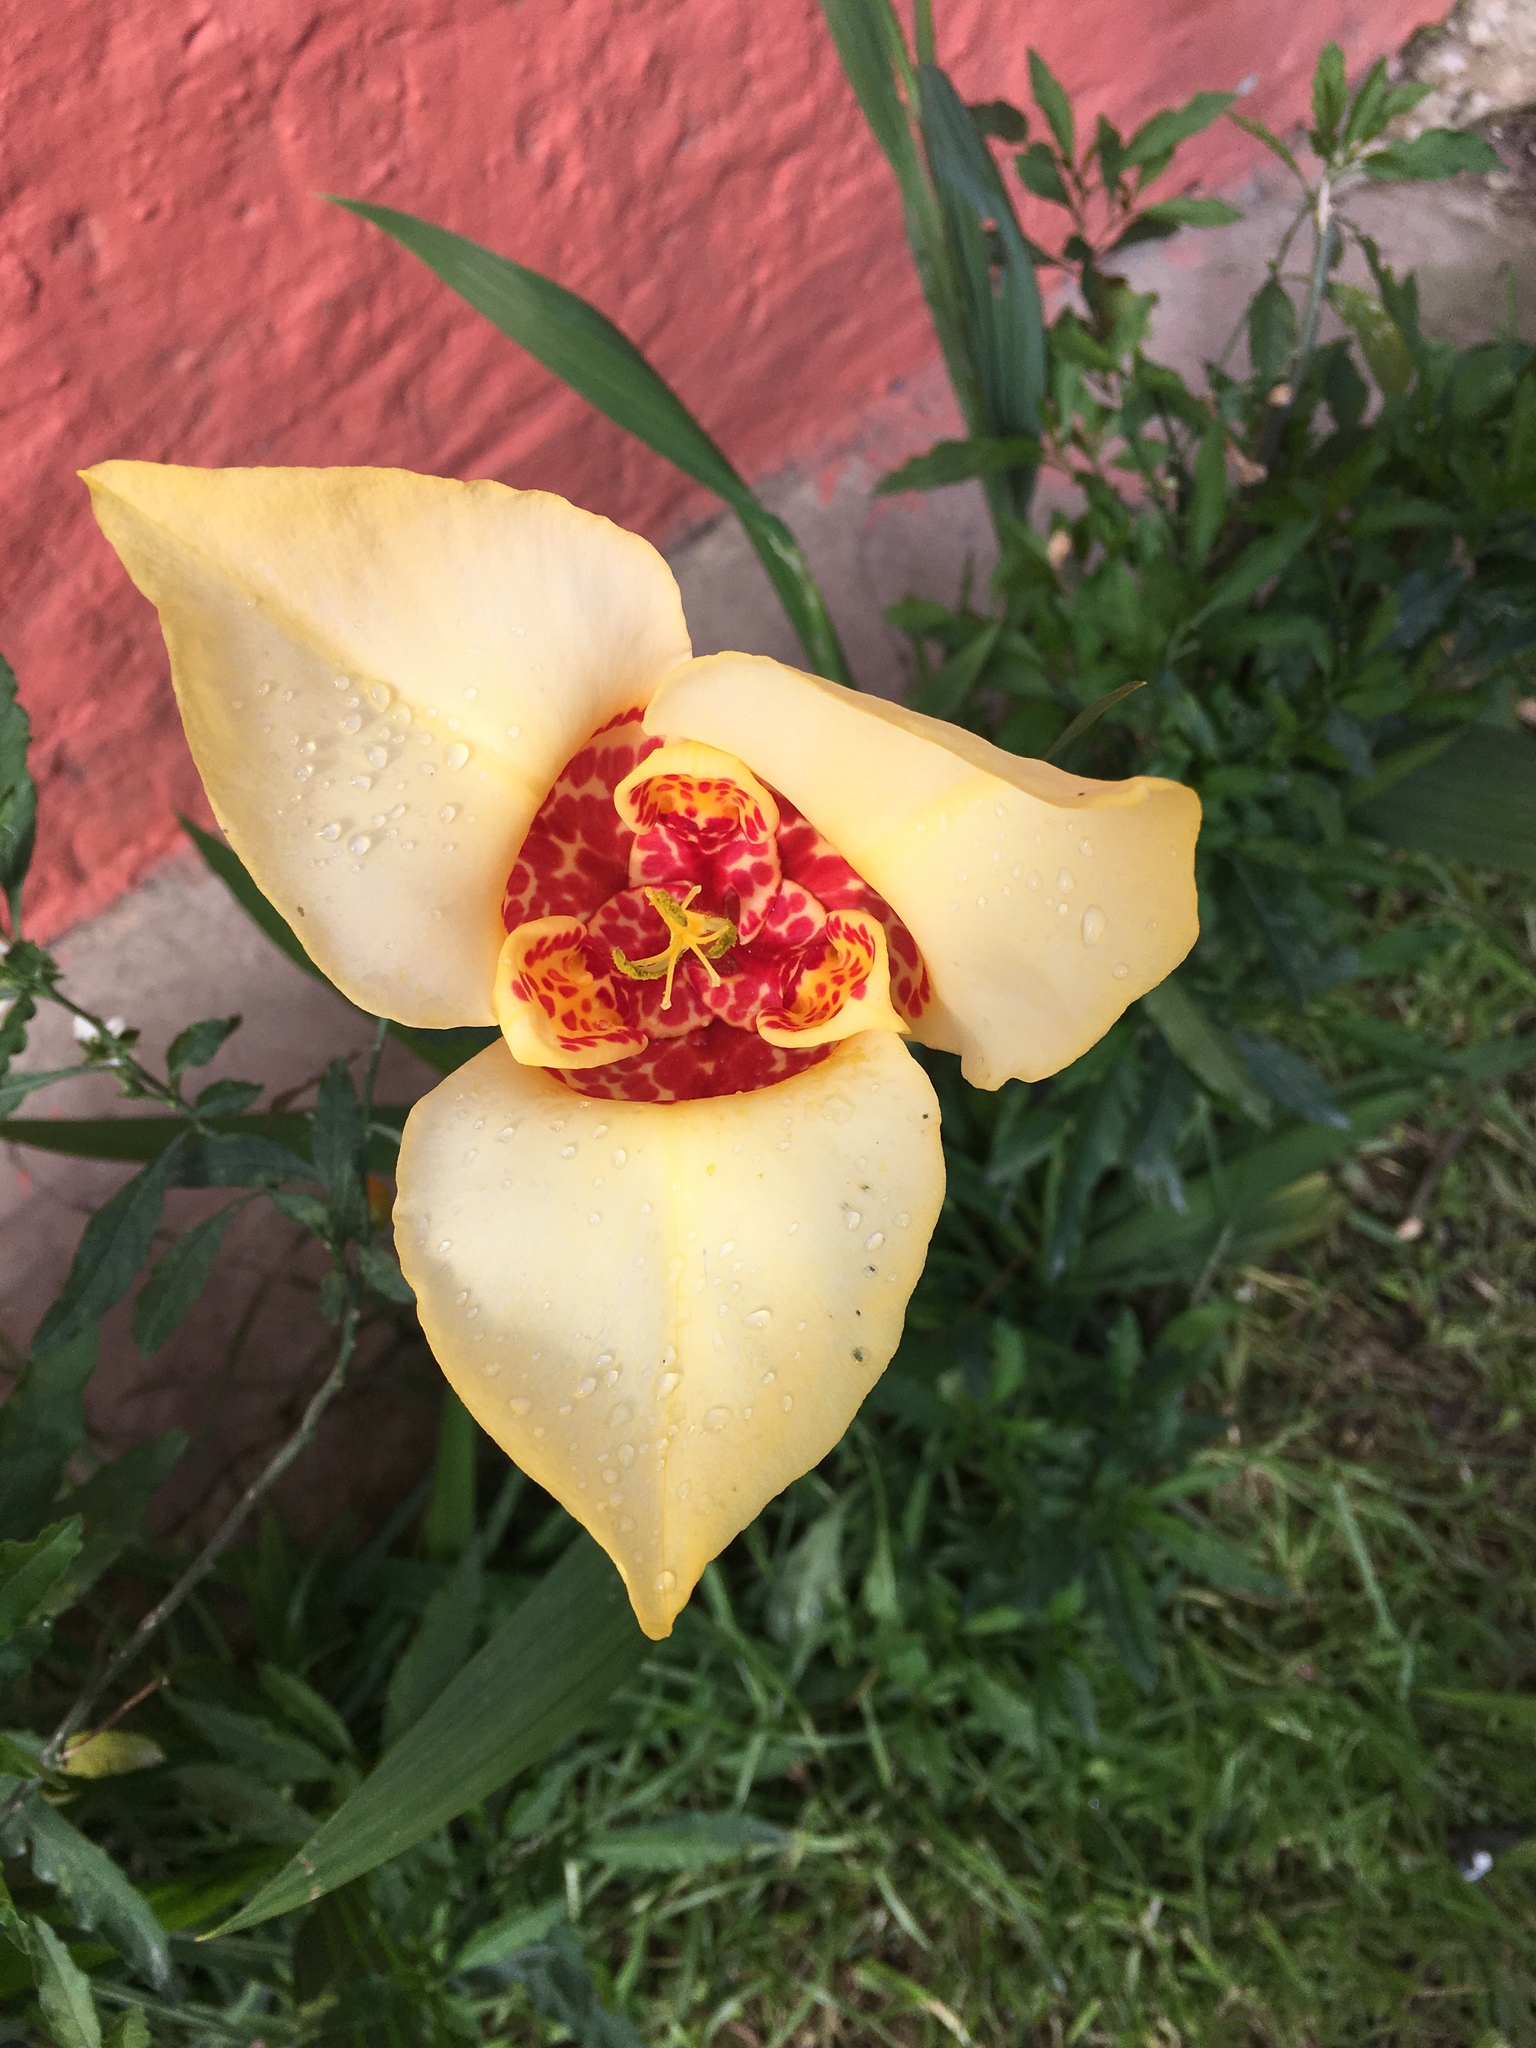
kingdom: Plantae
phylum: Tracheophyta
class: Liliopsida
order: Asparagales
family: Iridaceae
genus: Tigridia
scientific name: Tigridia pavonia
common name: Peacock-flower
